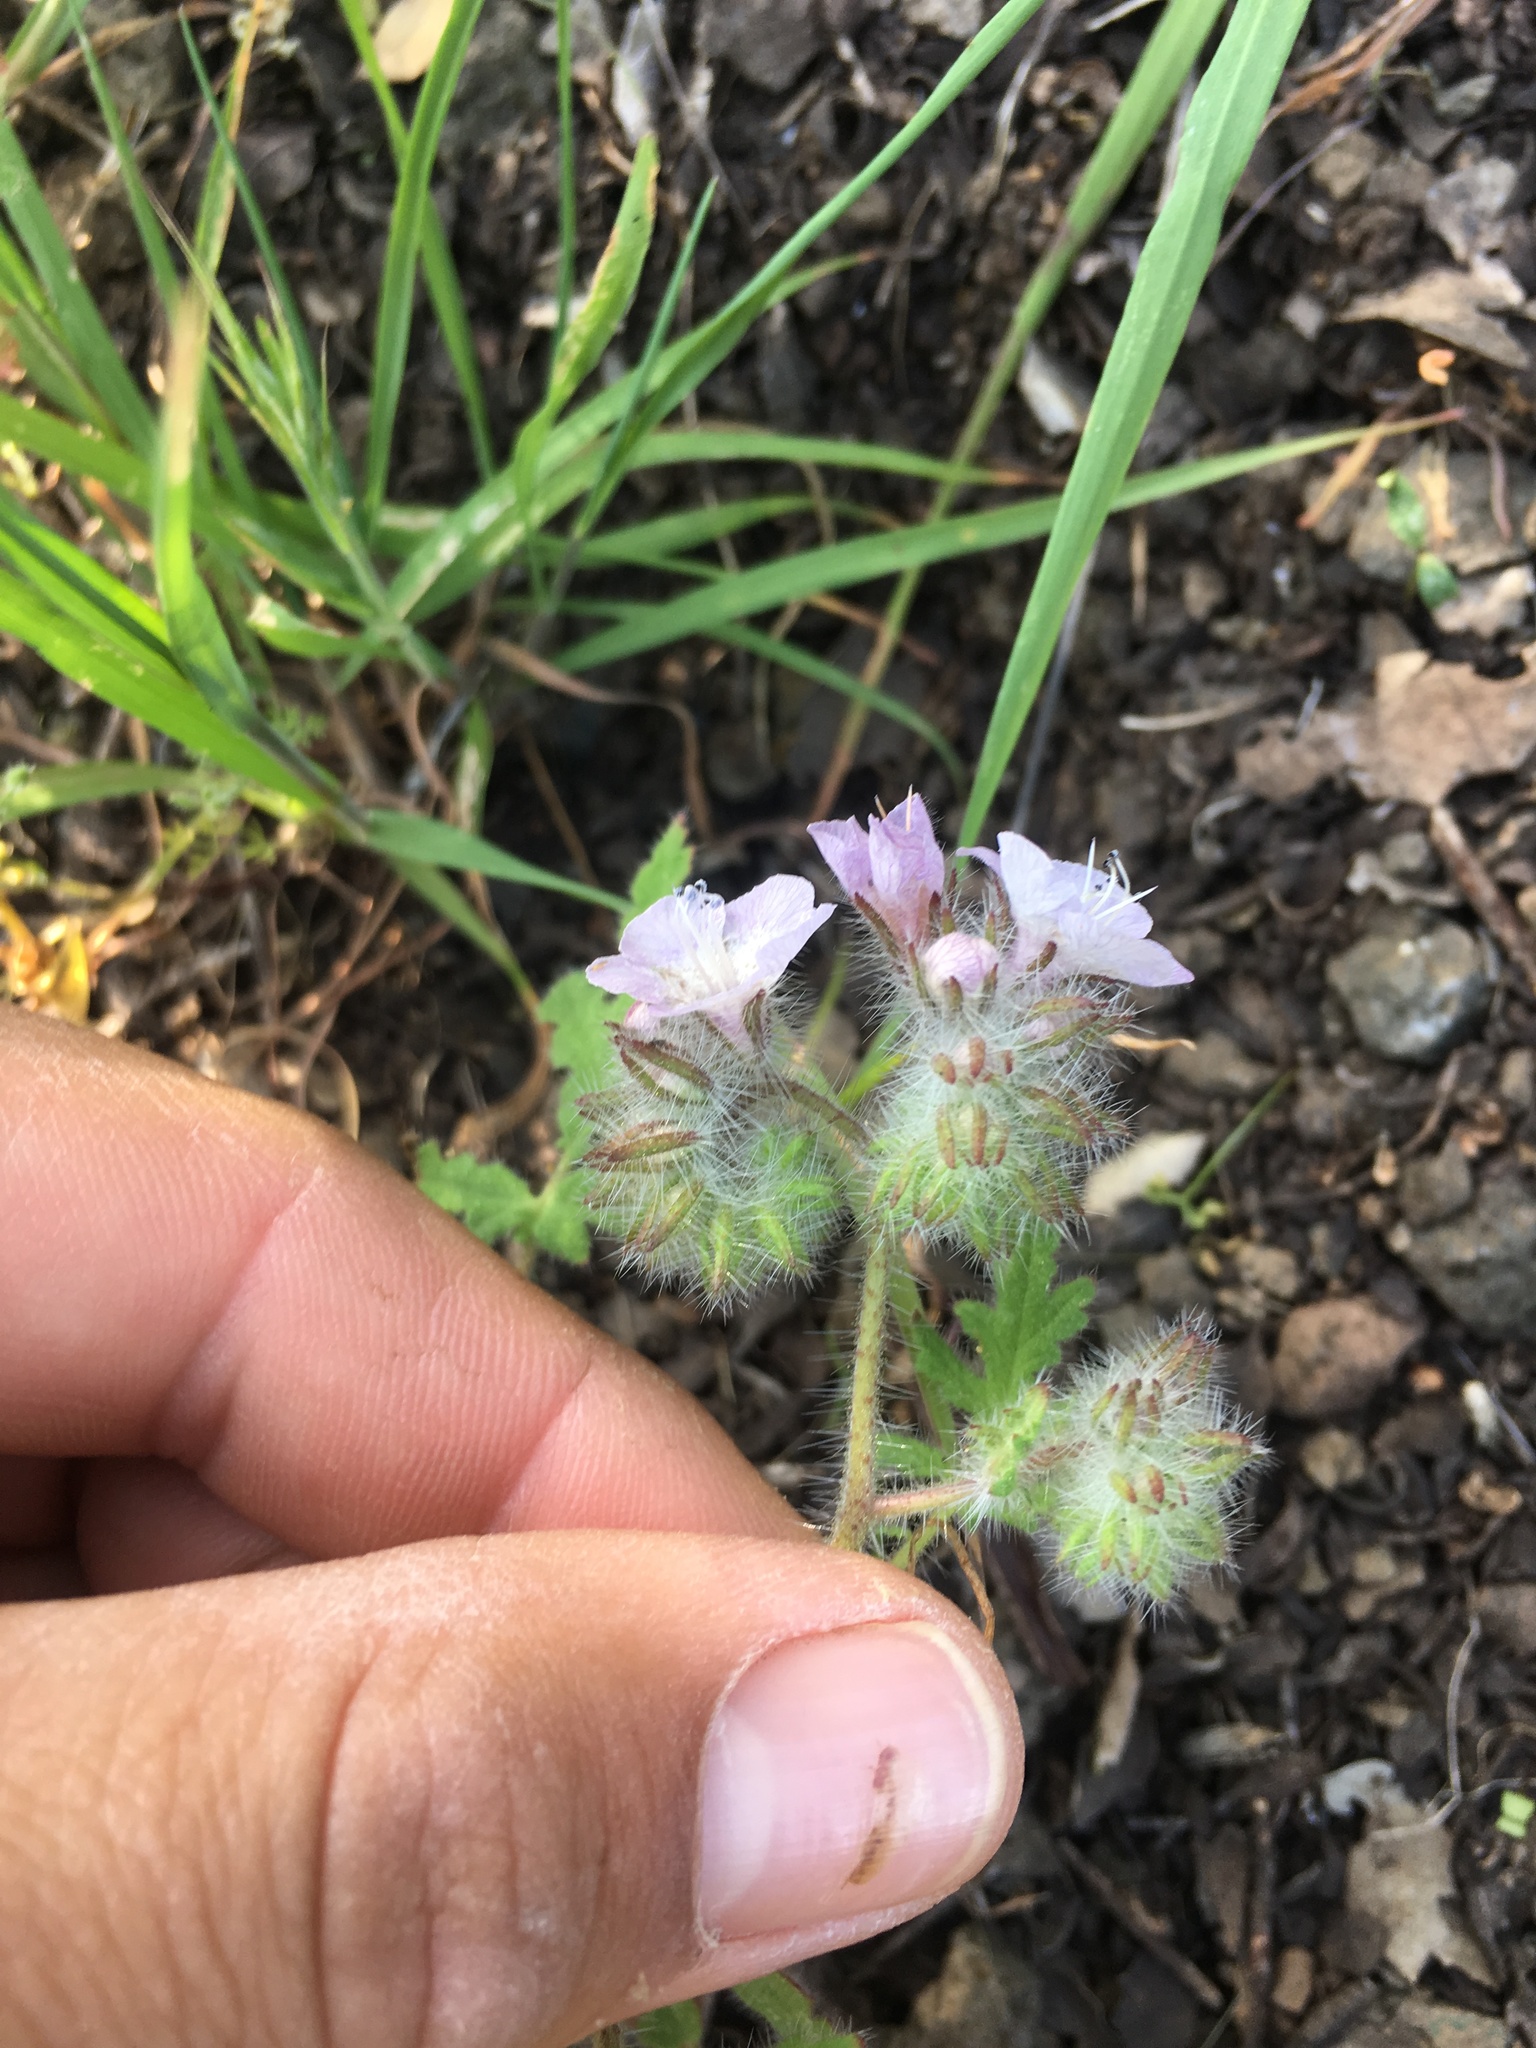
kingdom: Plantae
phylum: Tracheophyta
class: Magnoliopsida
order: Boraginales
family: Hydrophyllaceae
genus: Phacelia
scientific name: Phacelia cicutaria
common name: Caterpillar phacelia
